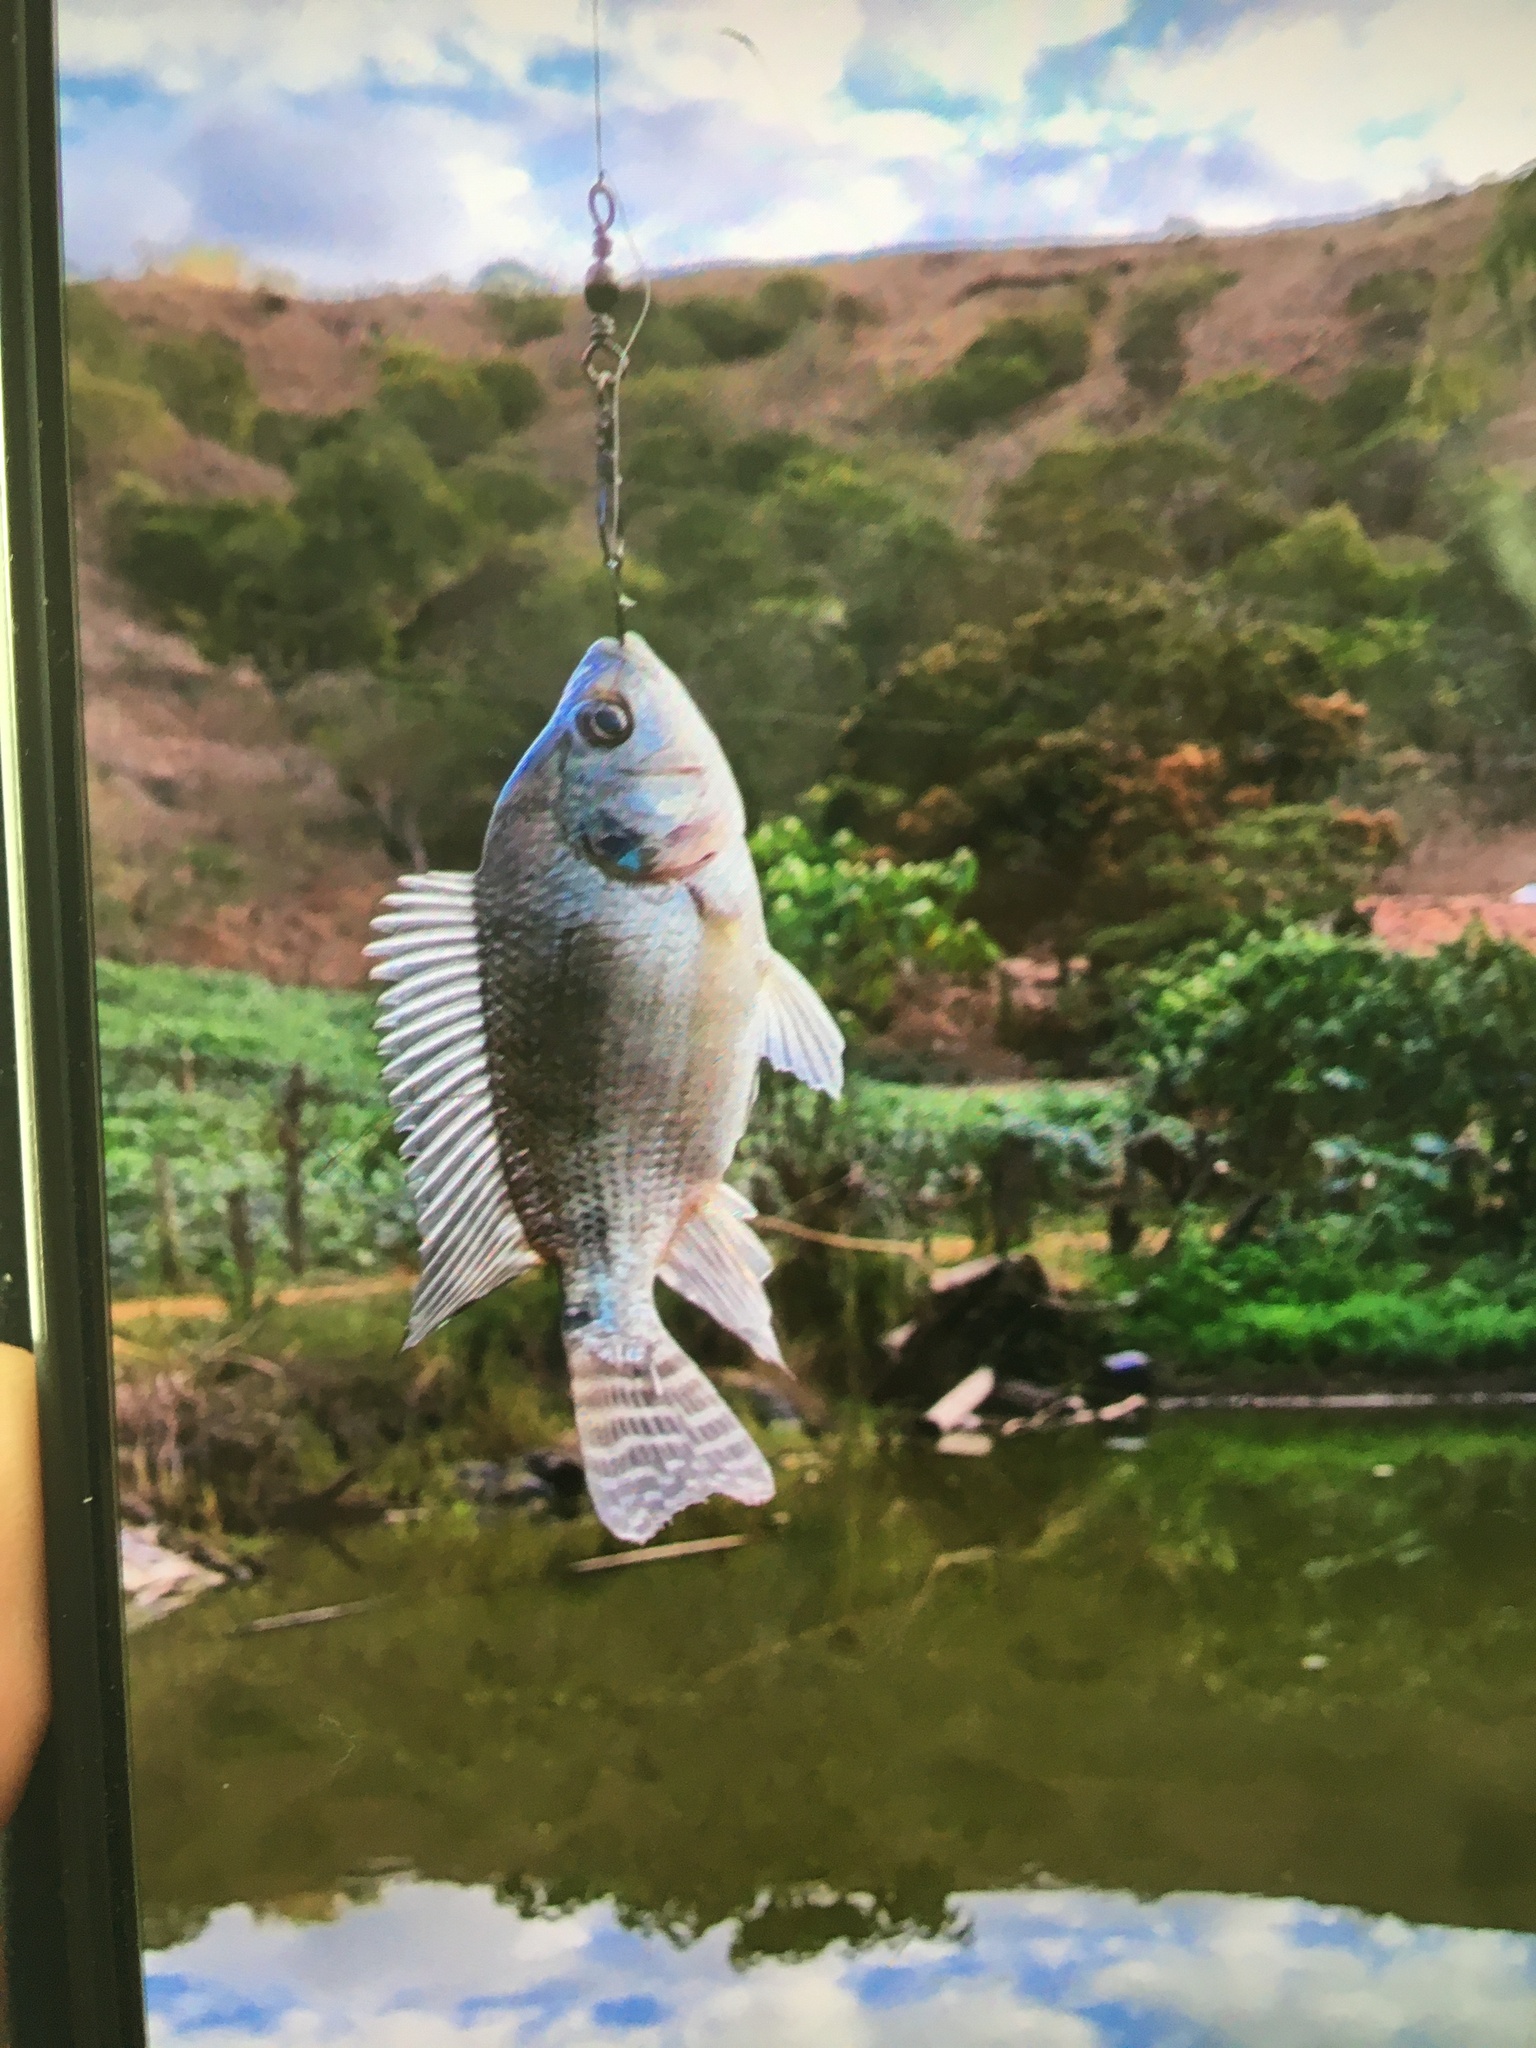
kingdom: Animalia
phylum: Chordata
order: Perciformes
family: Cichlidae
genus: Oreochromis
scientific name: Oreochromis niloticus
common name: Nile tilapia
